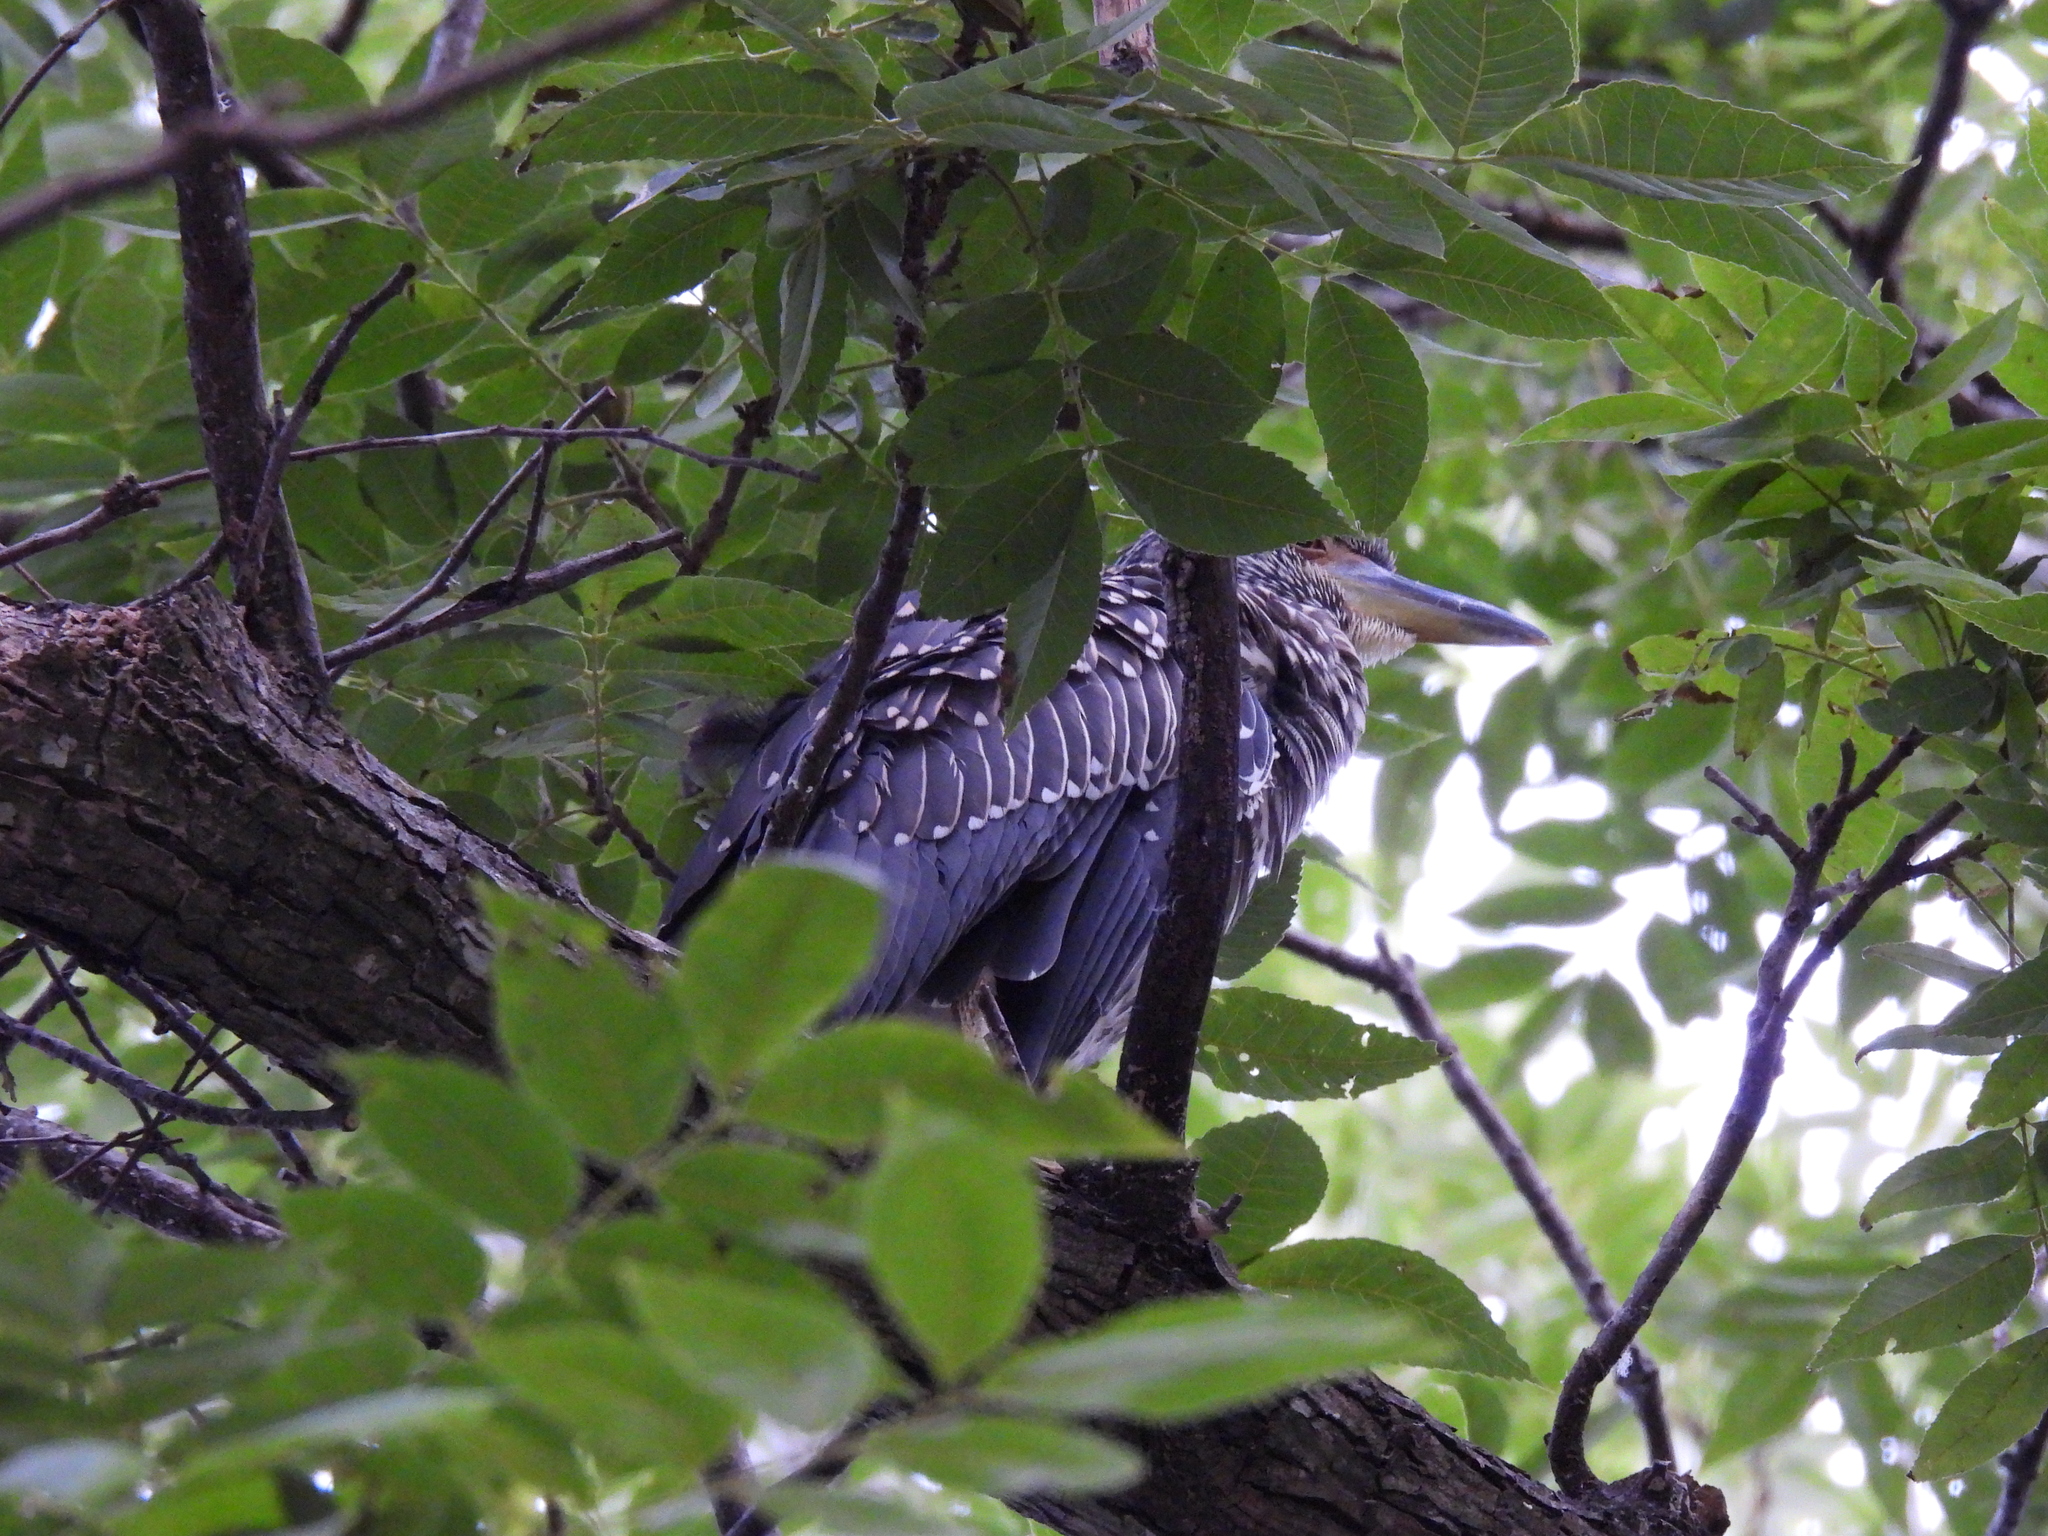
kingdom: Animalia
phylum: Chordata
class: Aves
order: Pelecaniformes
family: Ardeidae
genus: Nyctanassa
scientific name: Nyctanassa violacea
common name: Yellow-crowned night heron
